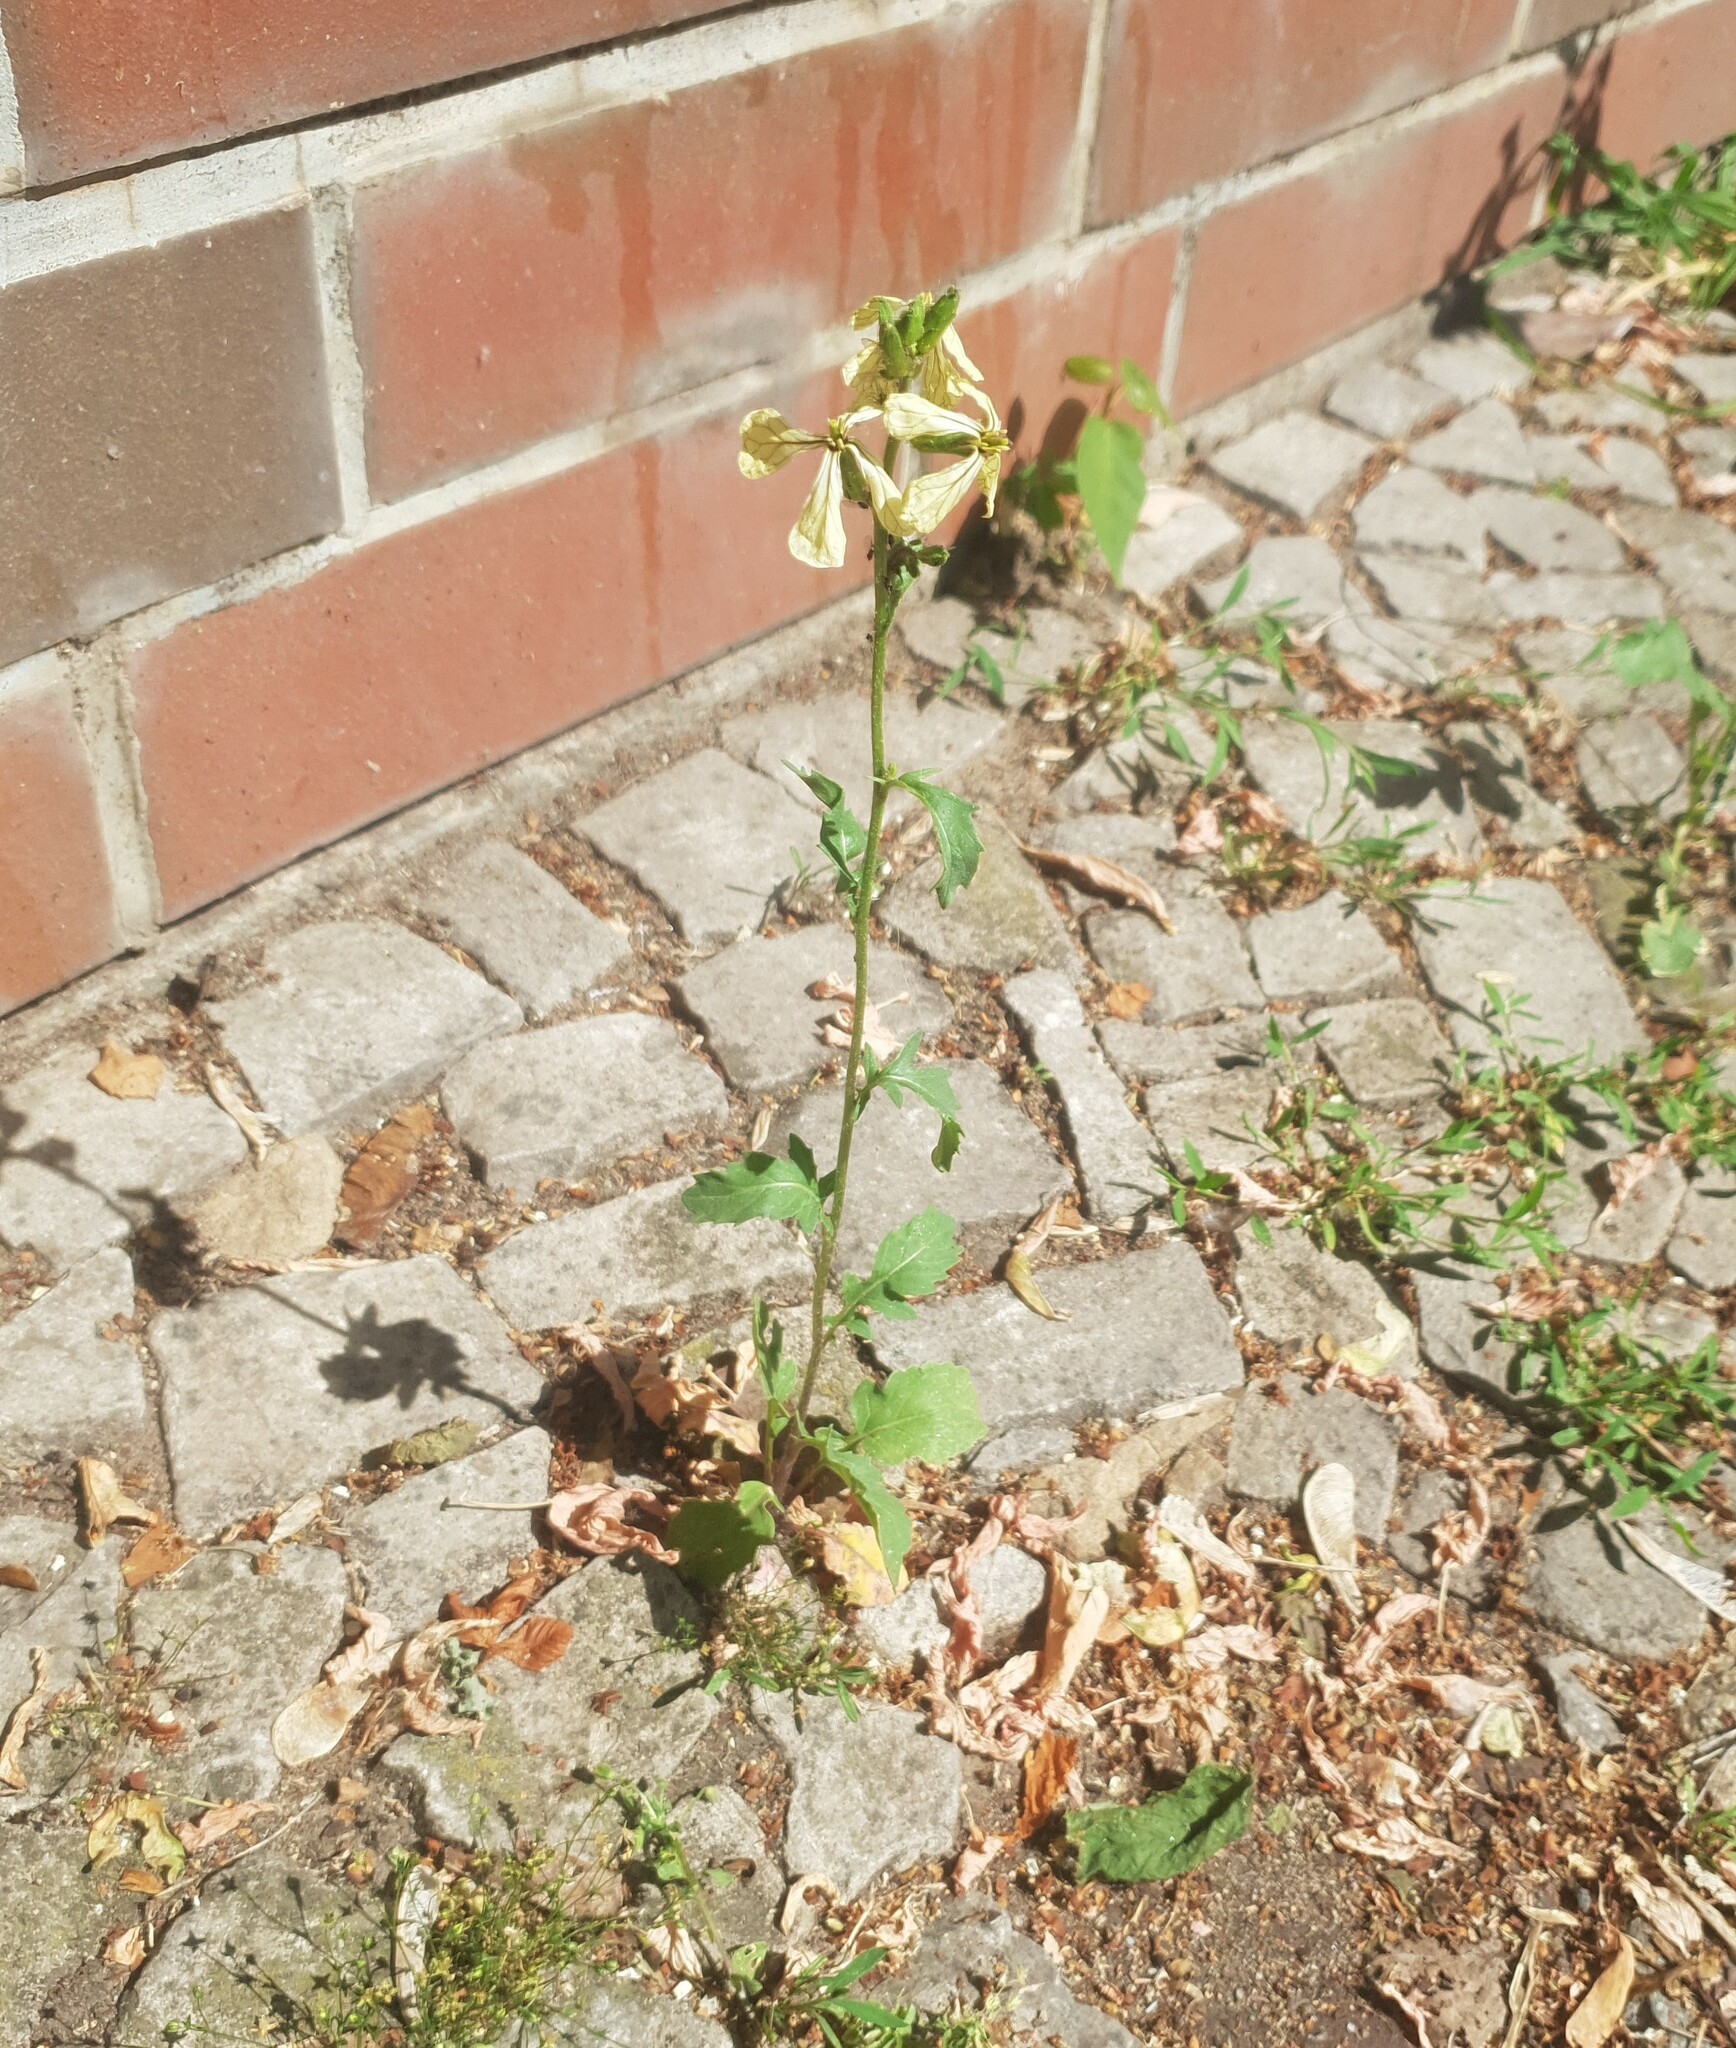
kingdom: Plantae
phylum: Tracheophyta
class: Magnoliopsida
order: Brassicales
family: Brassicaceae
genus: Eruca
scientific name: Eruca vesicaria
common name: Garden rocket
